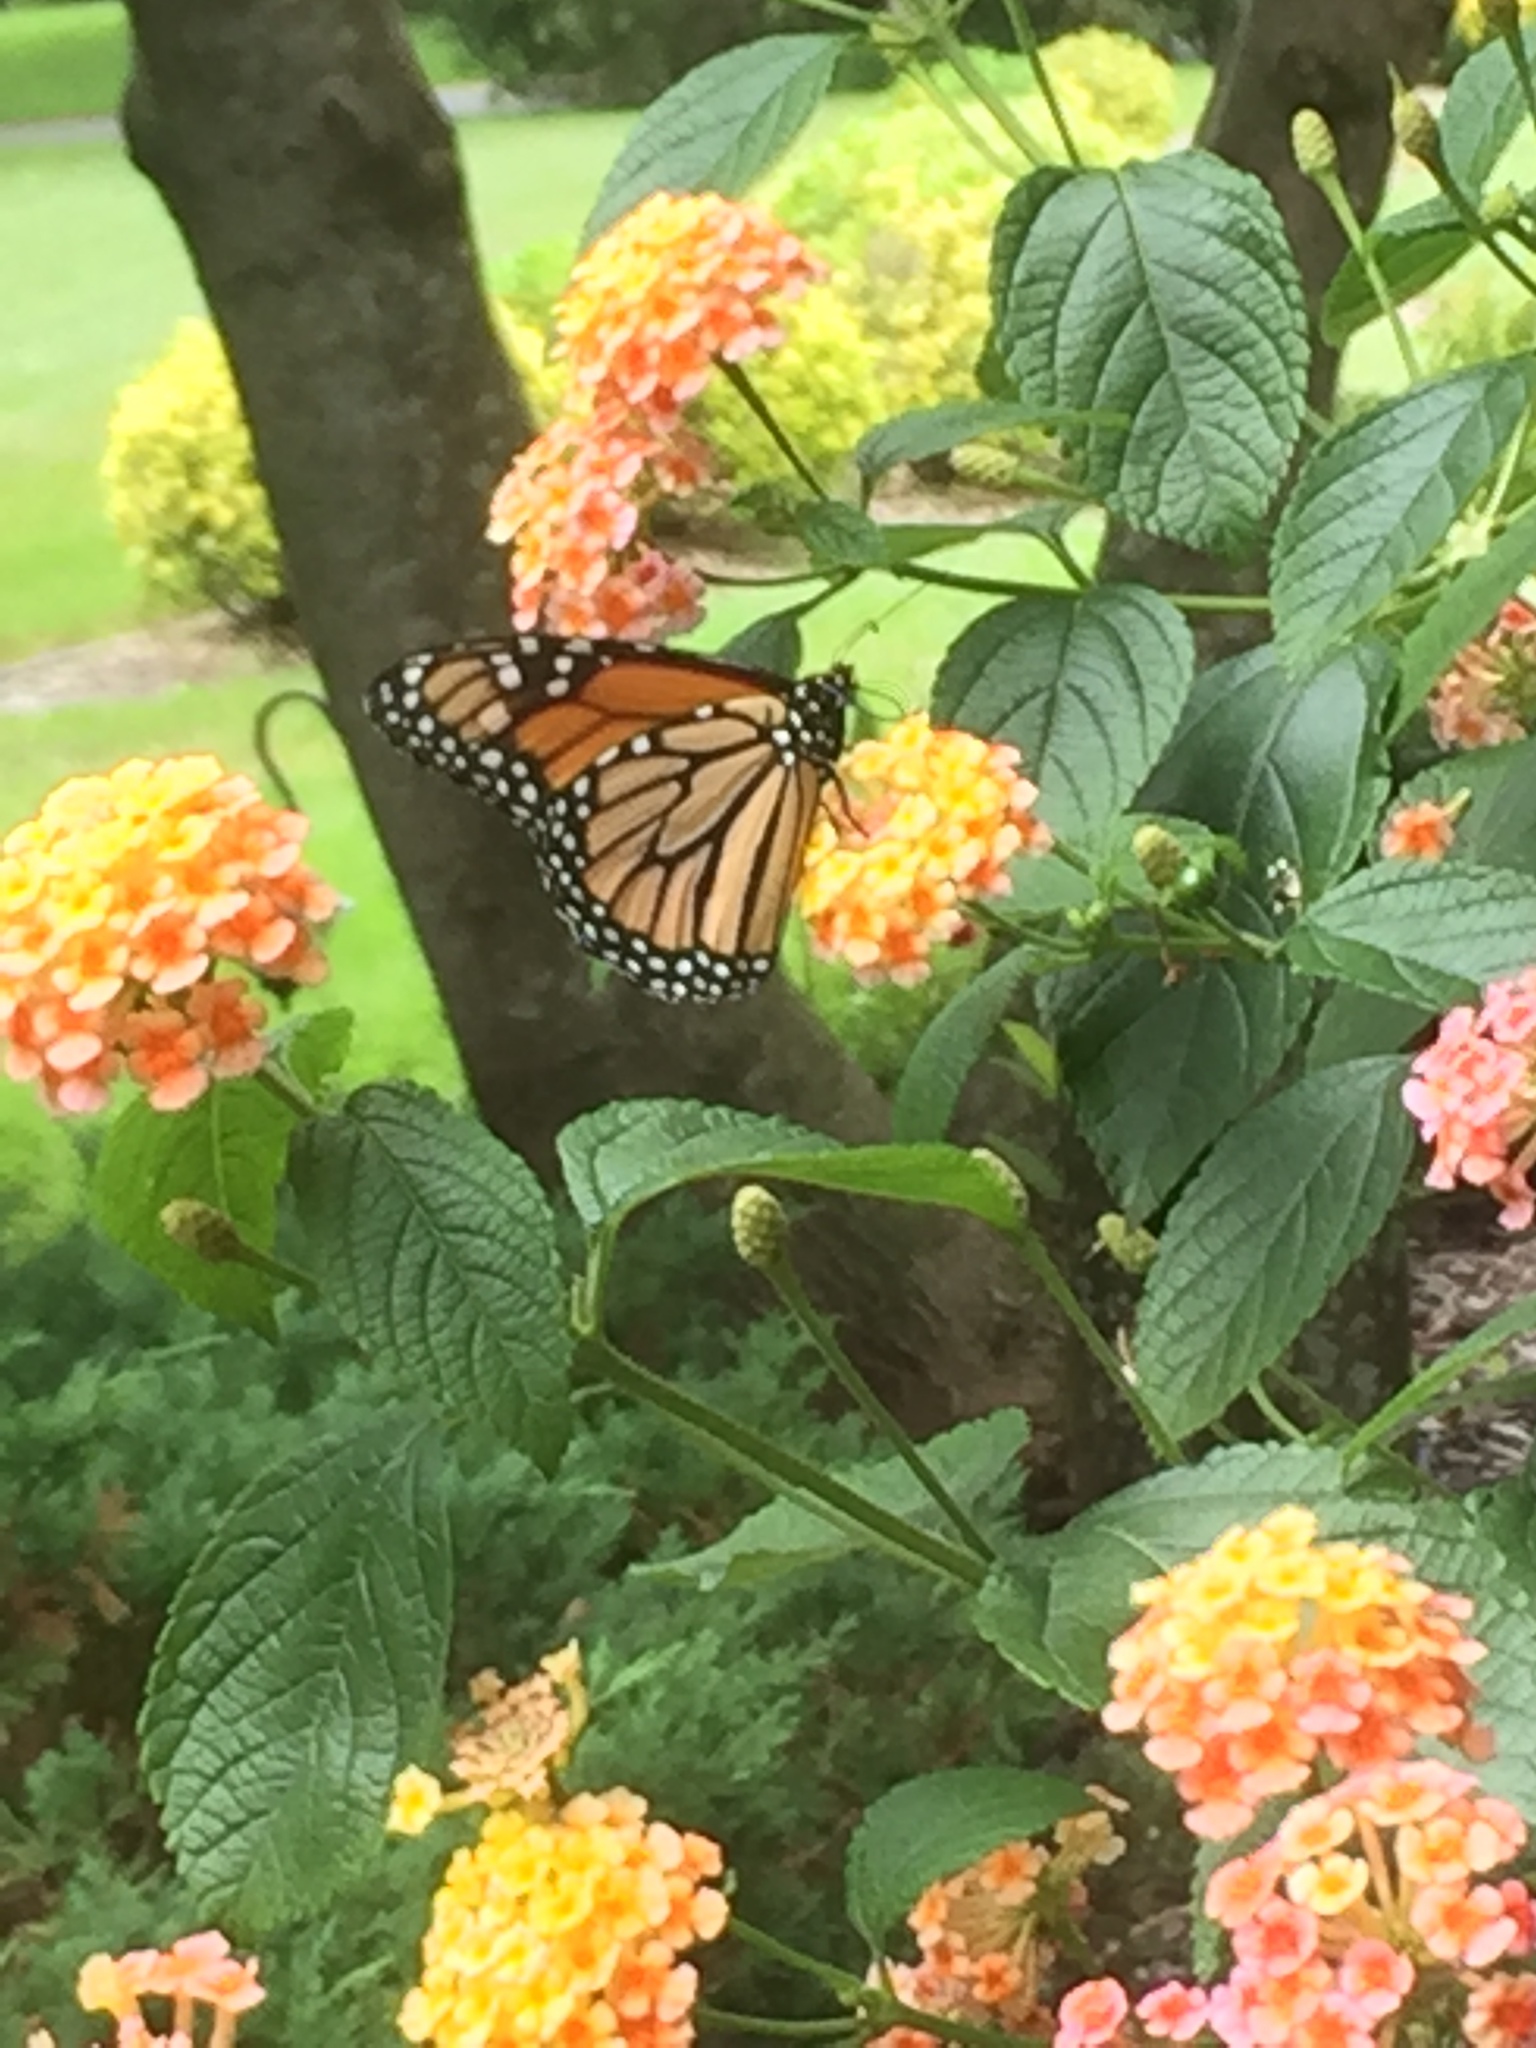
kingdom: Animalia
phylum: Arthropoda
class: Insecta
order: Lepidoptera
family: Nymphalidae
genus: Danaus
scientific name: Danaus plexippus
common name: Monarch
